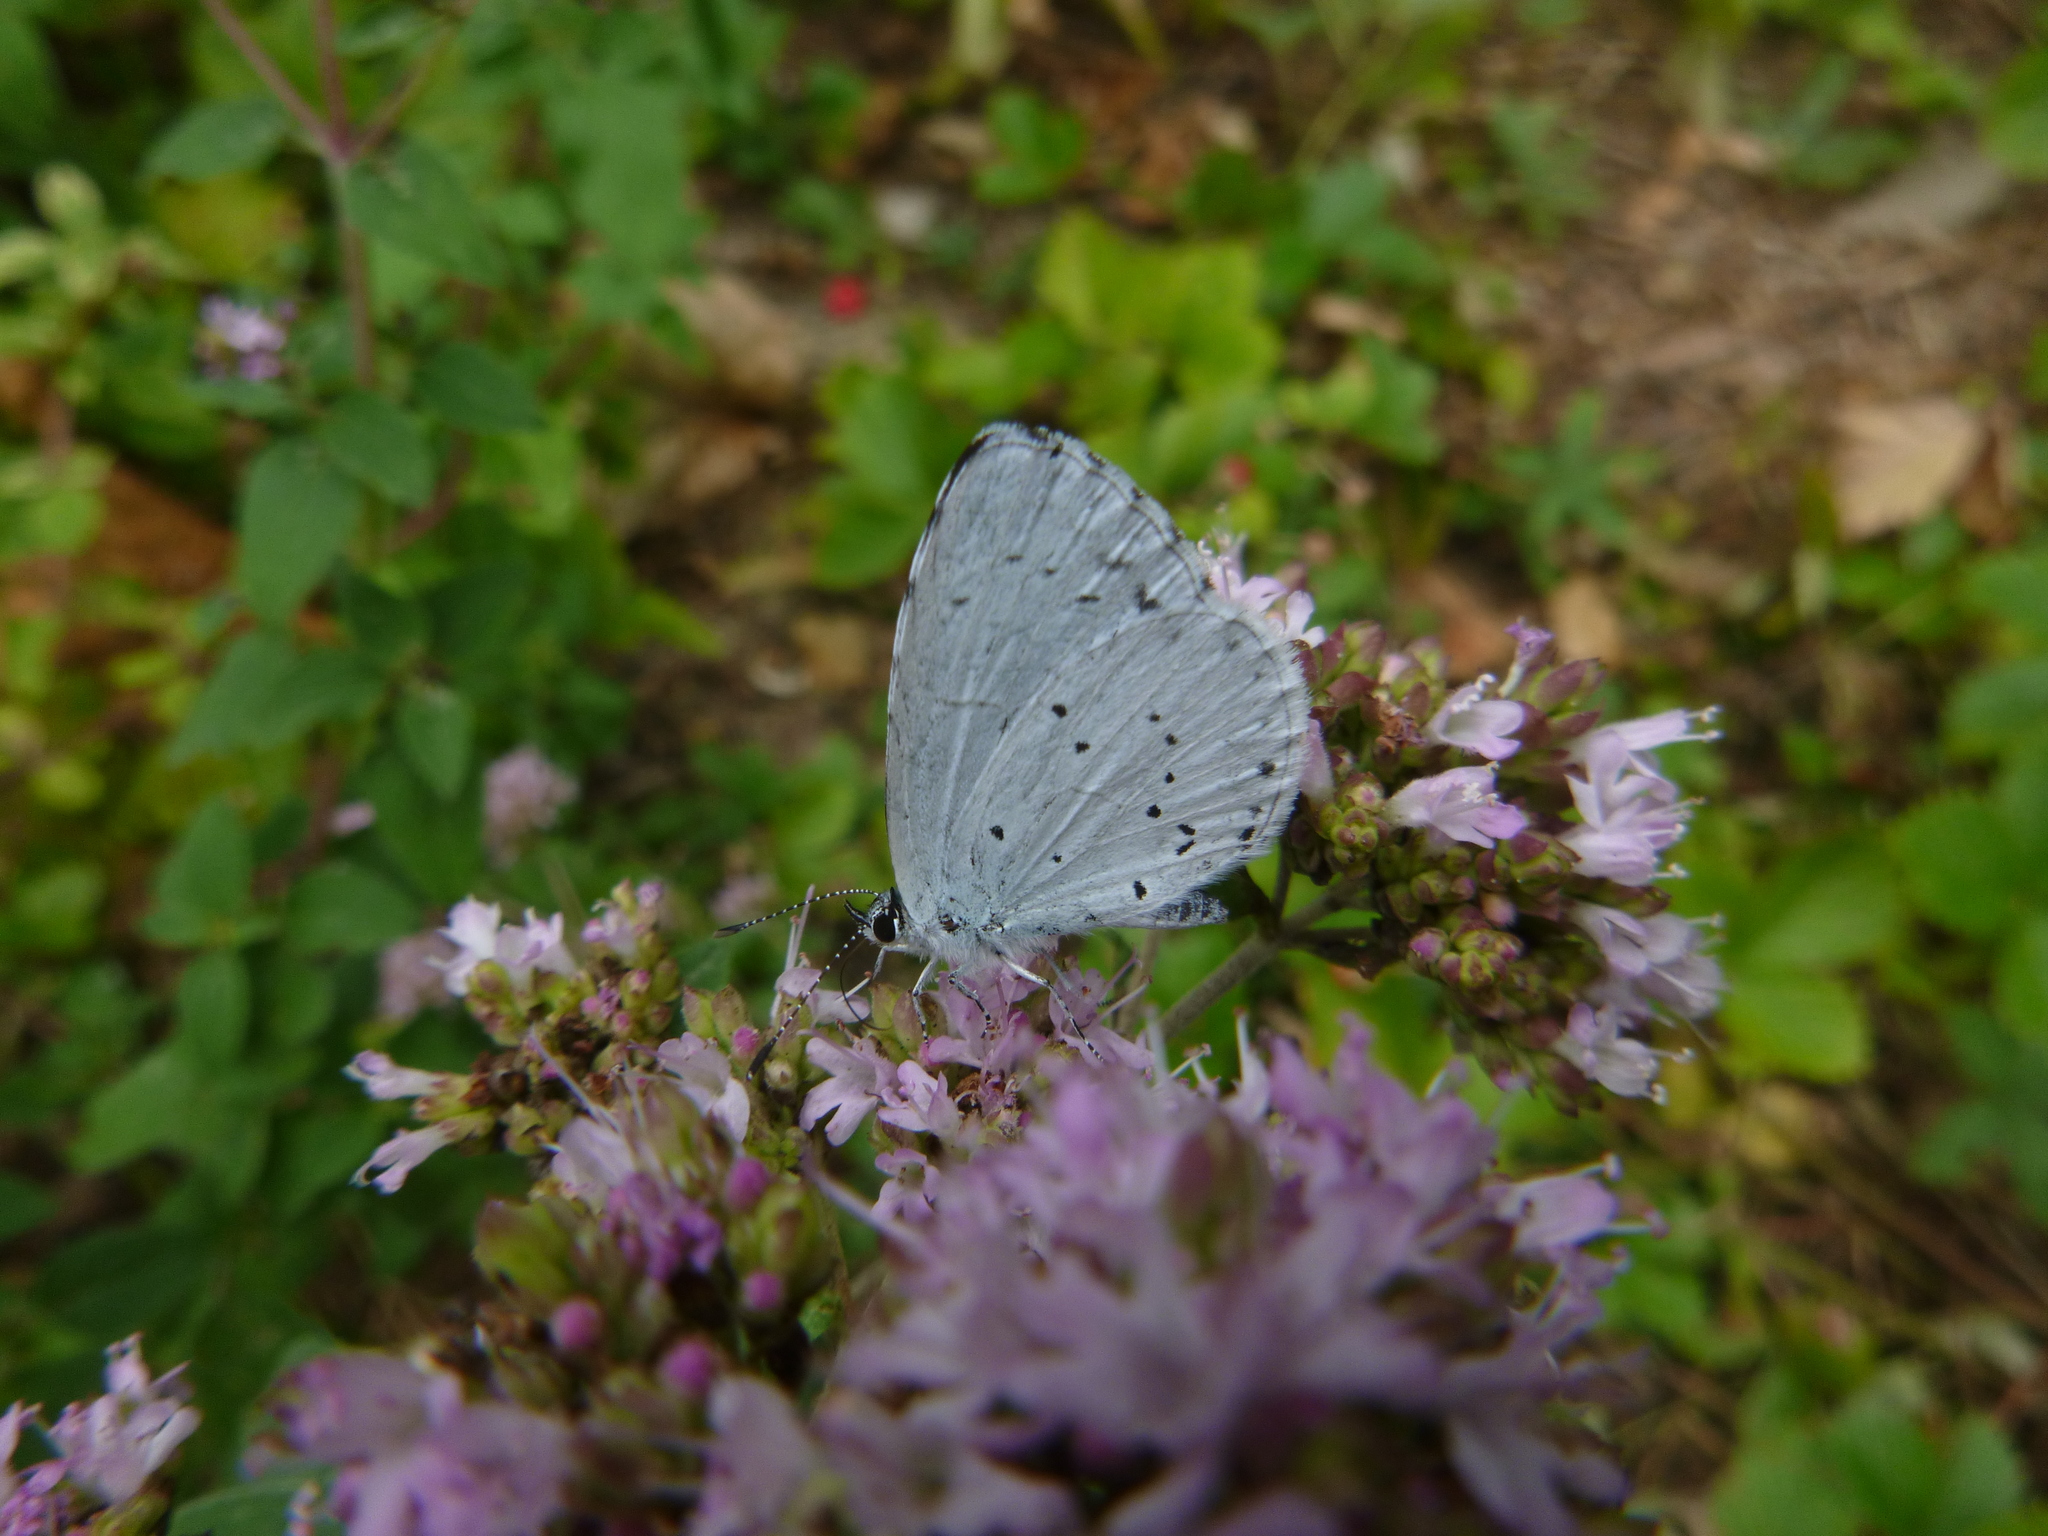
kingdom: Animalia
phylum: Arthropoda
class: Insecta
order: Lepidoptera
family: Lycaenidae
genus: Celastrina
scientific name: Celastrina argiolus
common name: Holly blue
